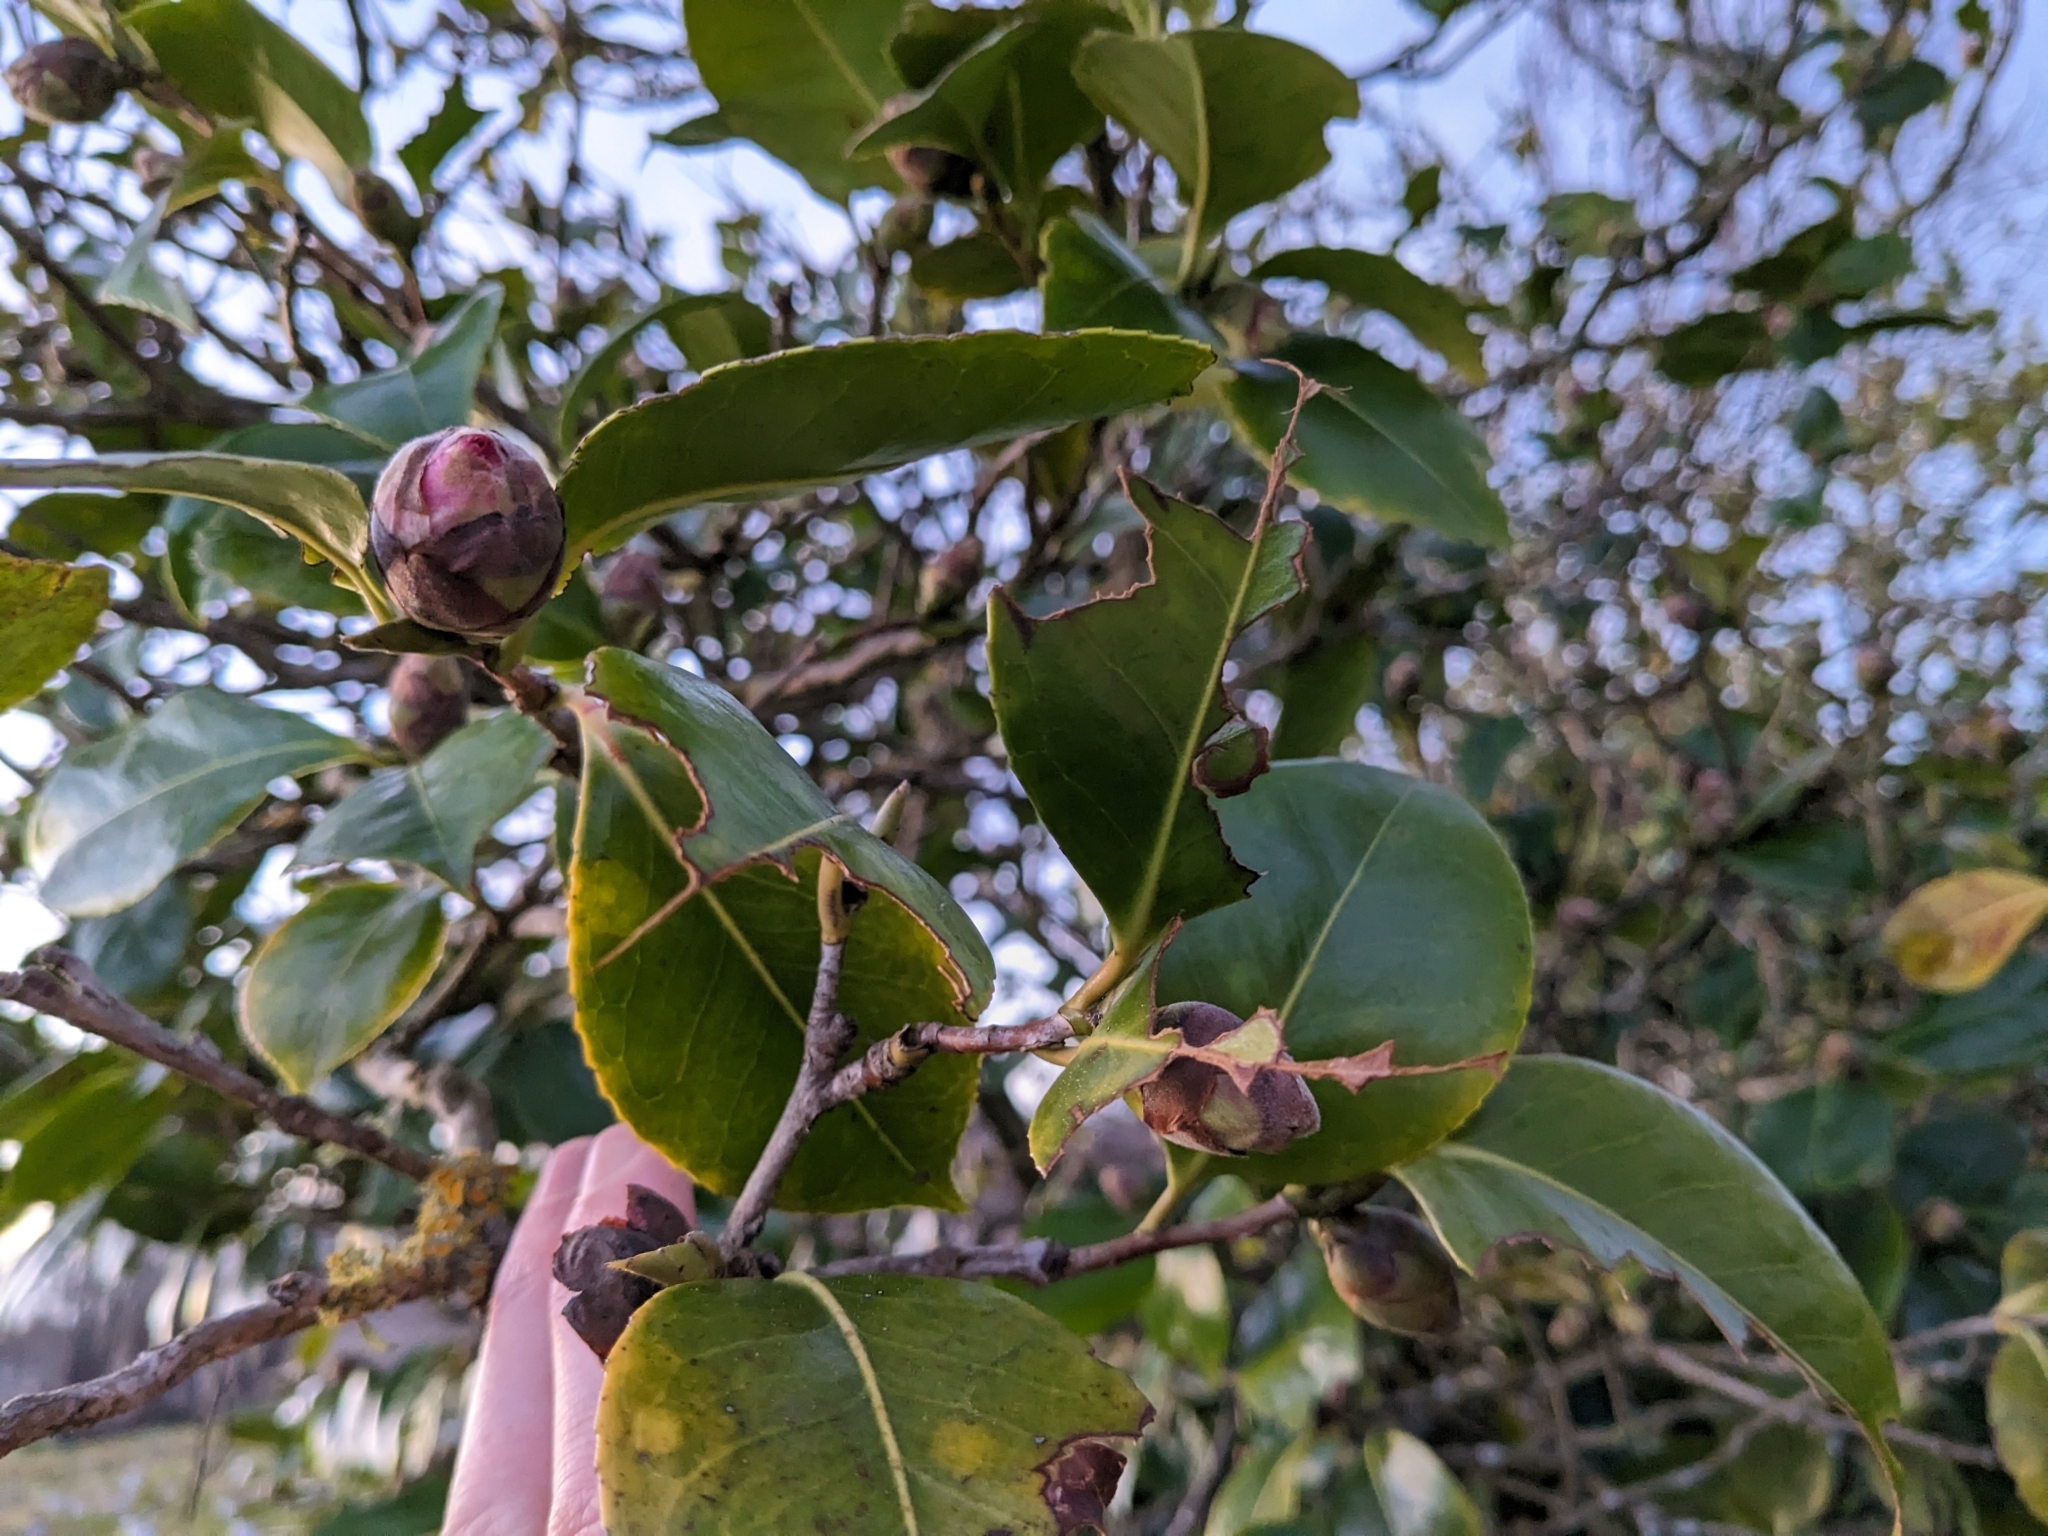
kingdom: Animalia
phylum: Chordata
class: Mammalia
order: Diprotodontia
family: Phalangeridae
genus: Trichosurus
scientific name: Trichosurus vulpecula
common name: Common brushtail
